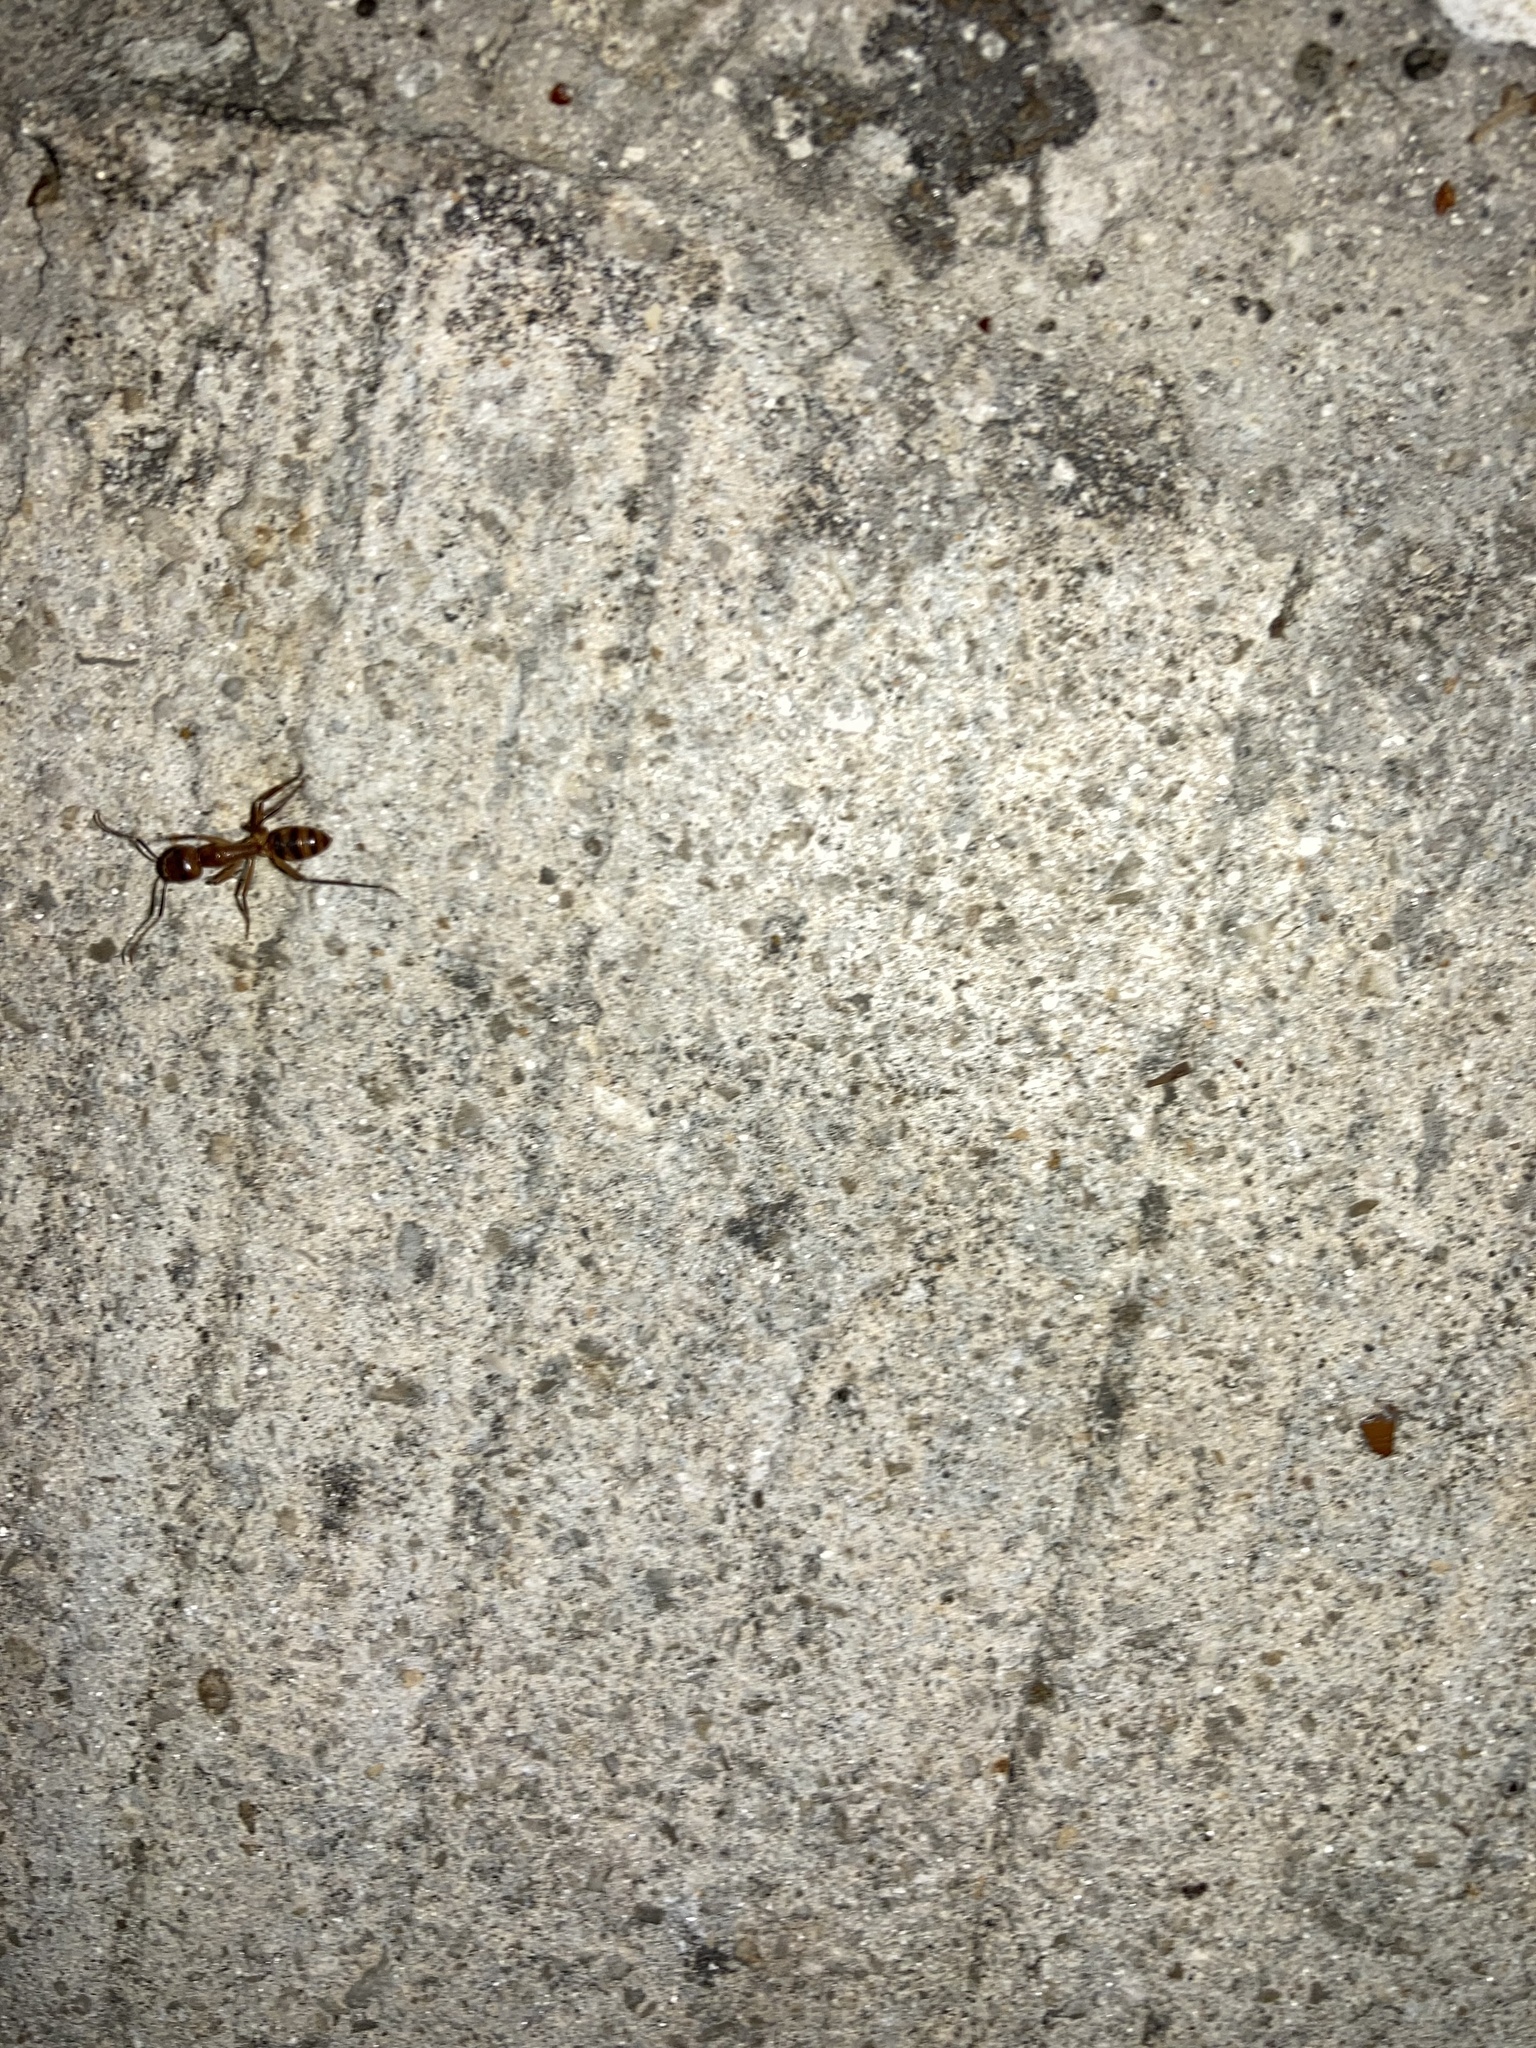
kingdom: Animalia
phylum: Arthropoda
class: Insecta
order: Hymenoptera
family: Formicidae
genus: Camponotus
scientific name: Camponotus
